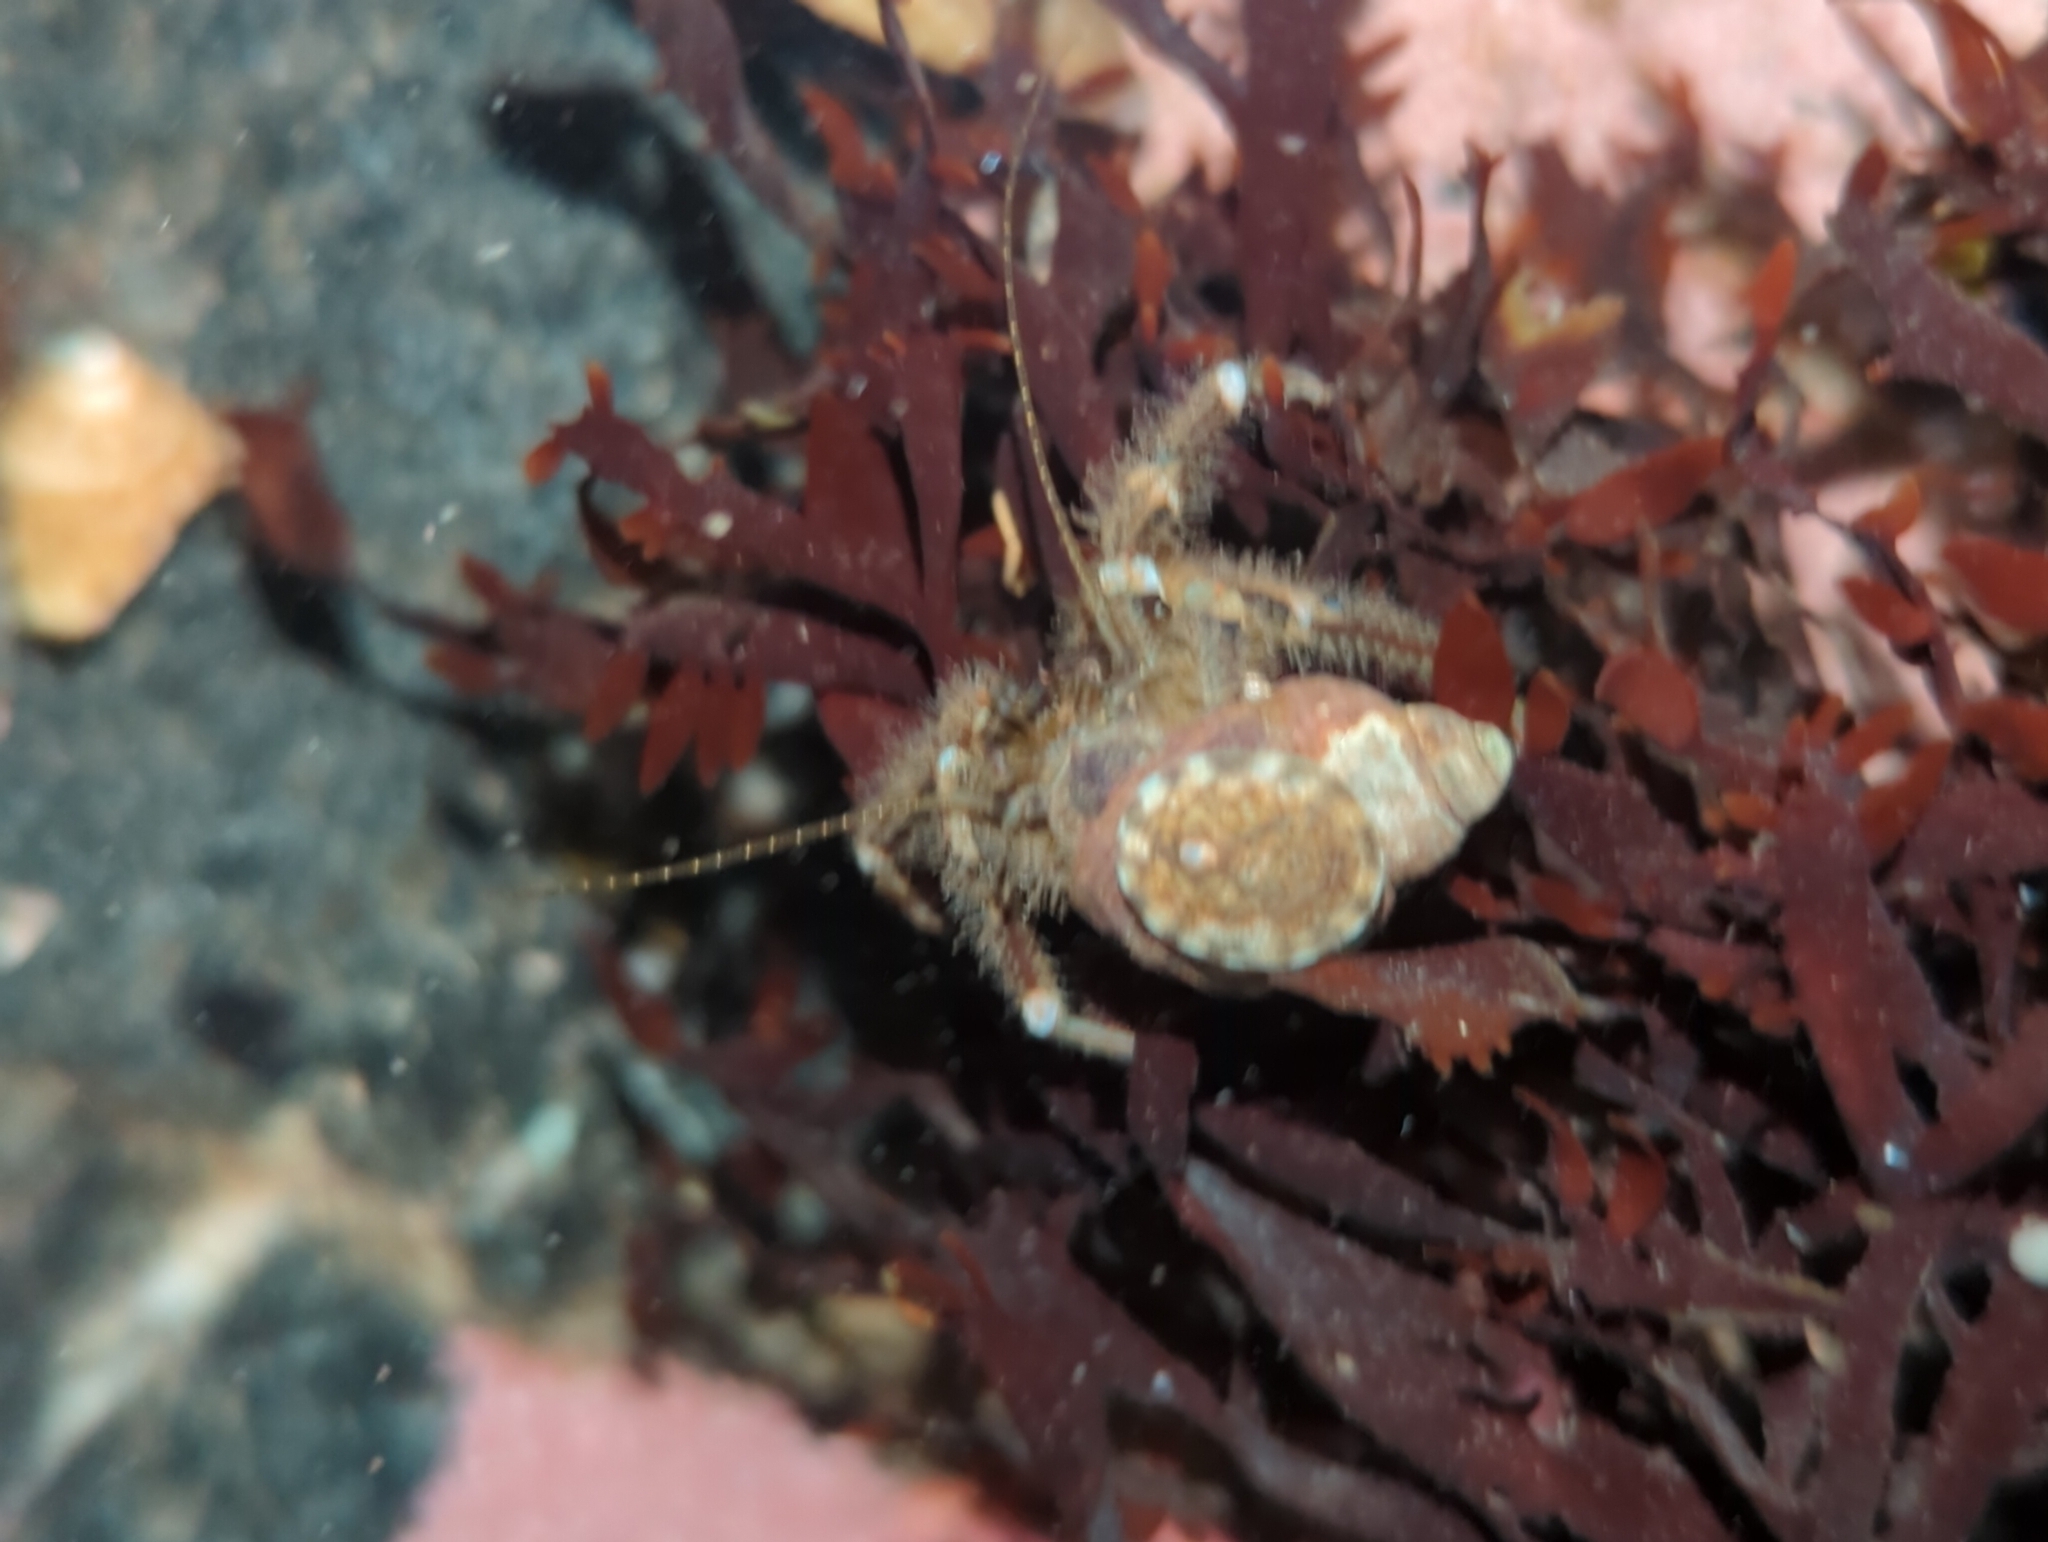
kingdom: Animalia
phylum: Arthropoda
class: Malacostraca
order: Decapoda
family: Paguridae
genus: Pagurus
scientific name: Pagurus hirsutiusculus
